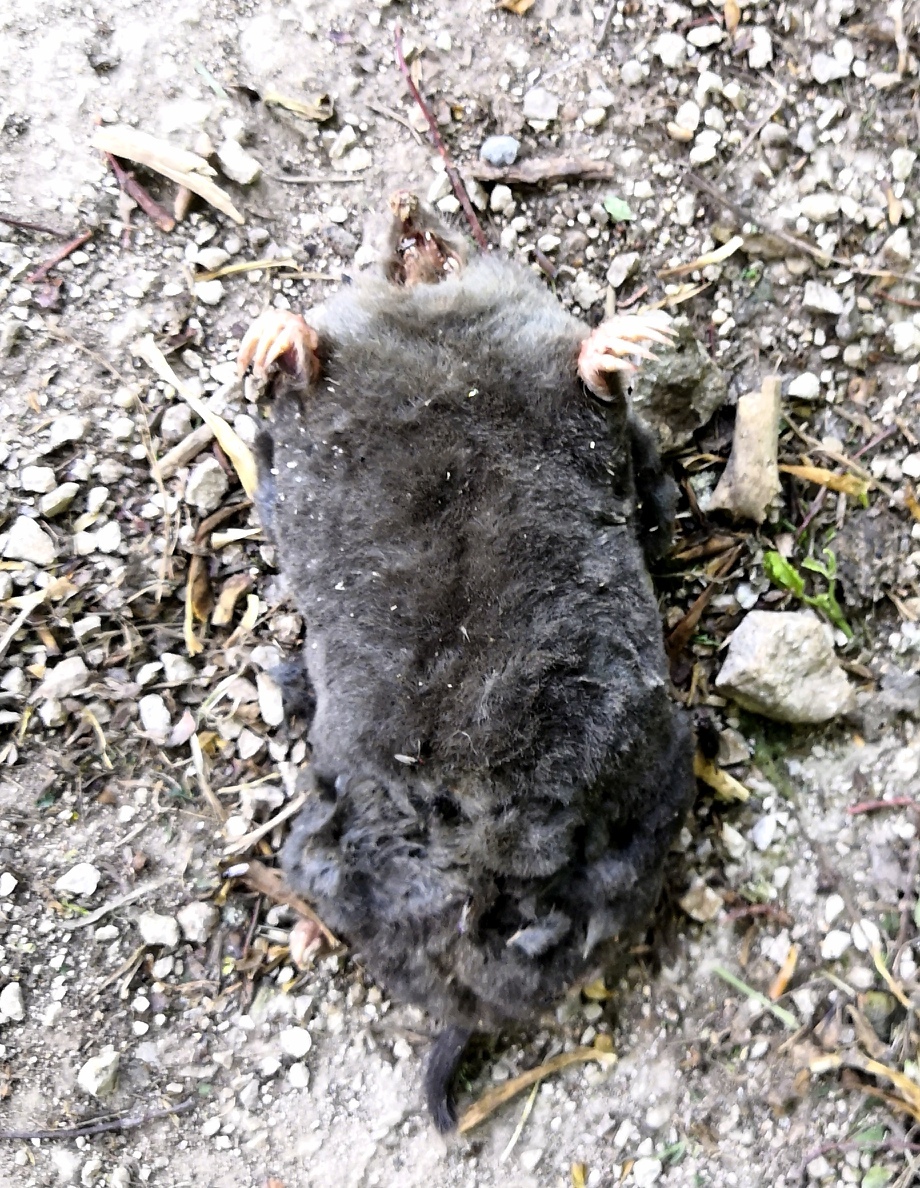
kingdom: Animalia
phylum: Chordata
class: Mammalia
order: Soricomorpha
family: Talpidae
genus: Talpa
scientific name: Talpa europaea
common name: European mole
